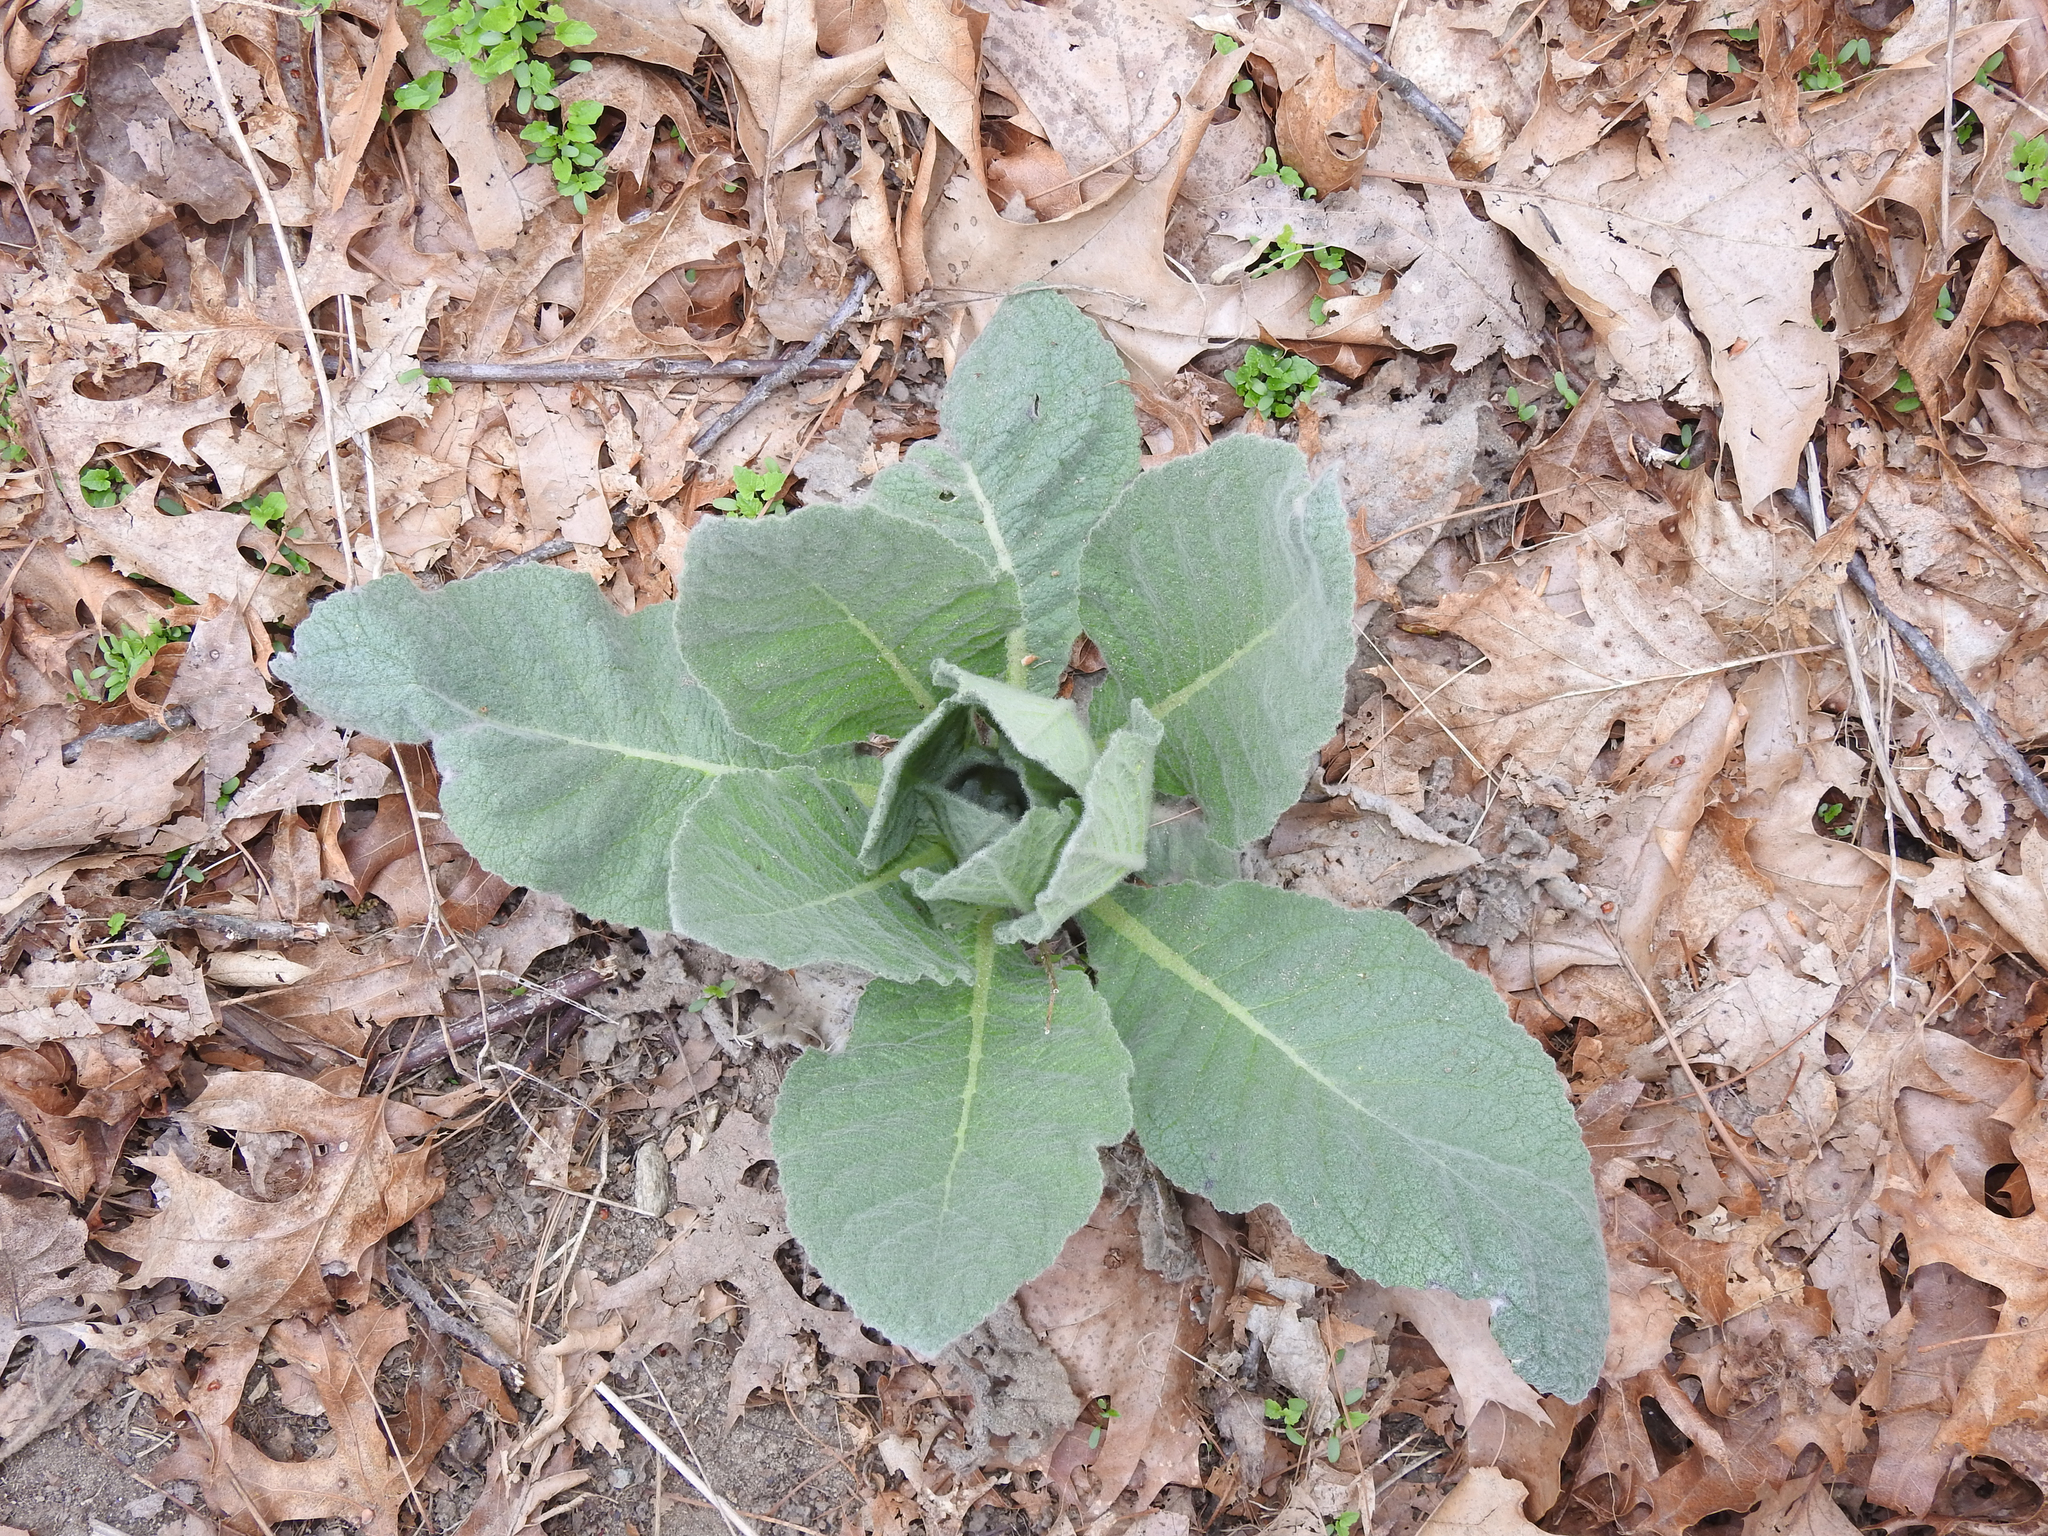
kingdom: Plantae
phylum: Tracheophyta
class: Magnoliopsida
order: Lamiales
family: Scrophulariaceae
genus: Verbascum
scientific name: Verbascum thapsus
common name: Common mullein
